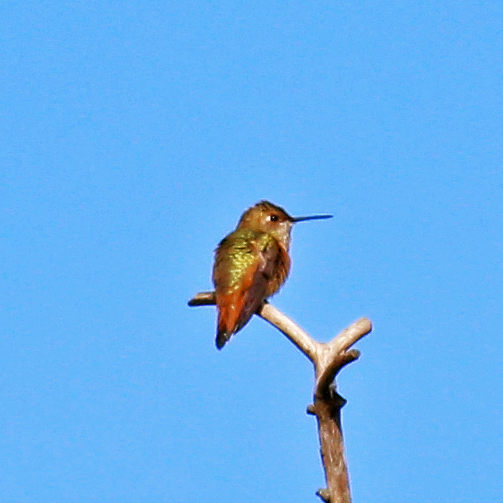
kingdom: Animalia
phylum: Chordata
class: Aves
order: Apodiformes
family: Trochilidae
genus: Selasphorus
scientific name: Selasphorus rufus
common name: Rufous hummingbird
